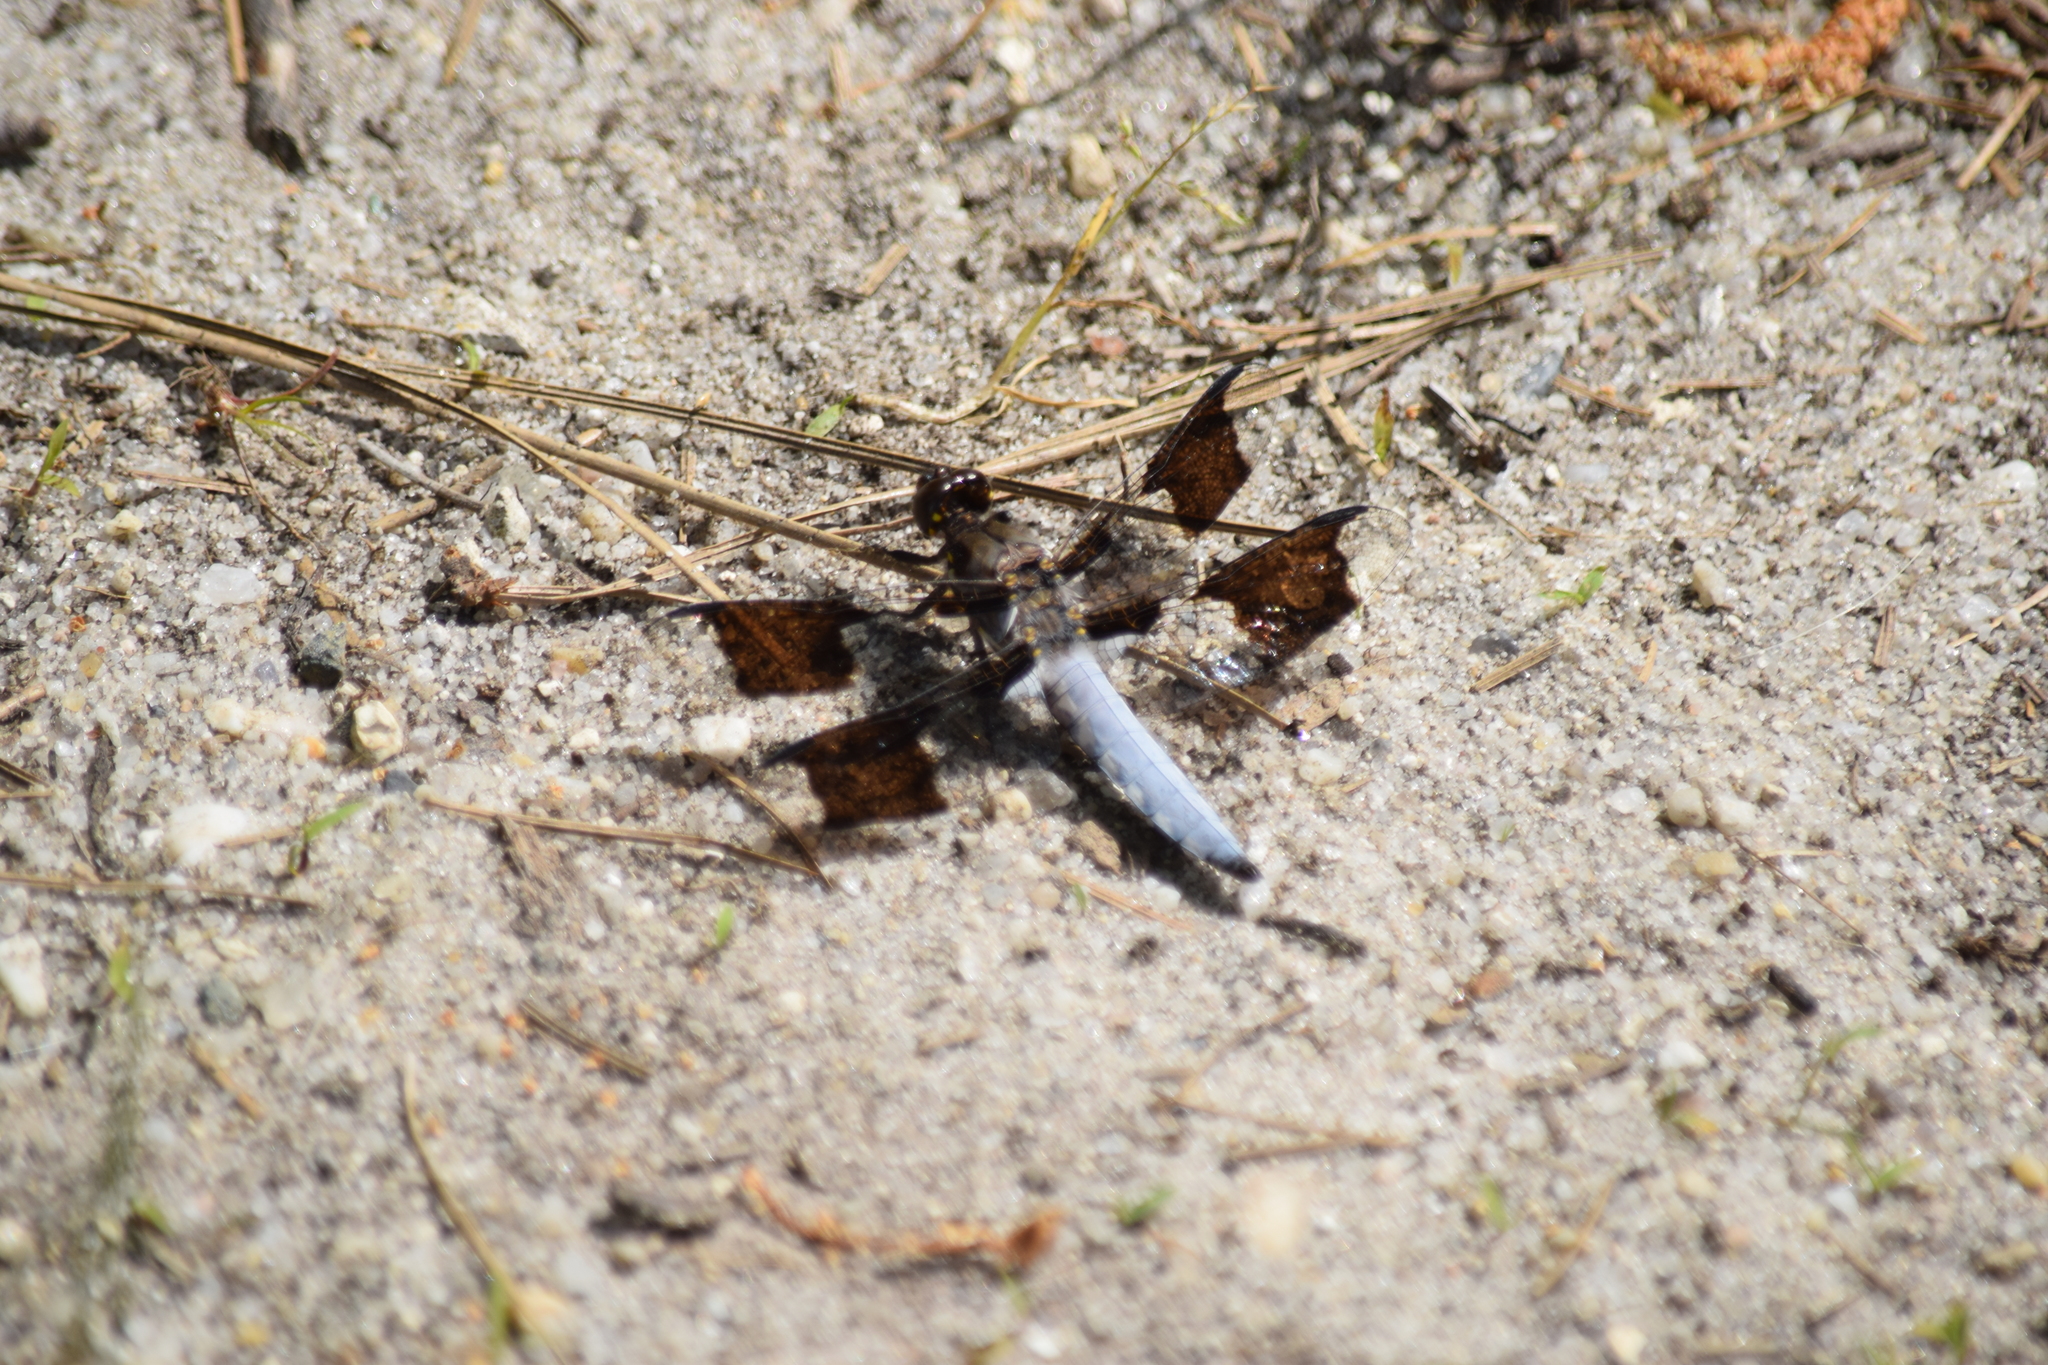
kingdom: Animalia
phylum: Arthropoda
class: Insecta
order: Odonata
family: Libellulidae
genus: Plathemis
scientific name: Plathemis lydia
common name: Common whitetail
